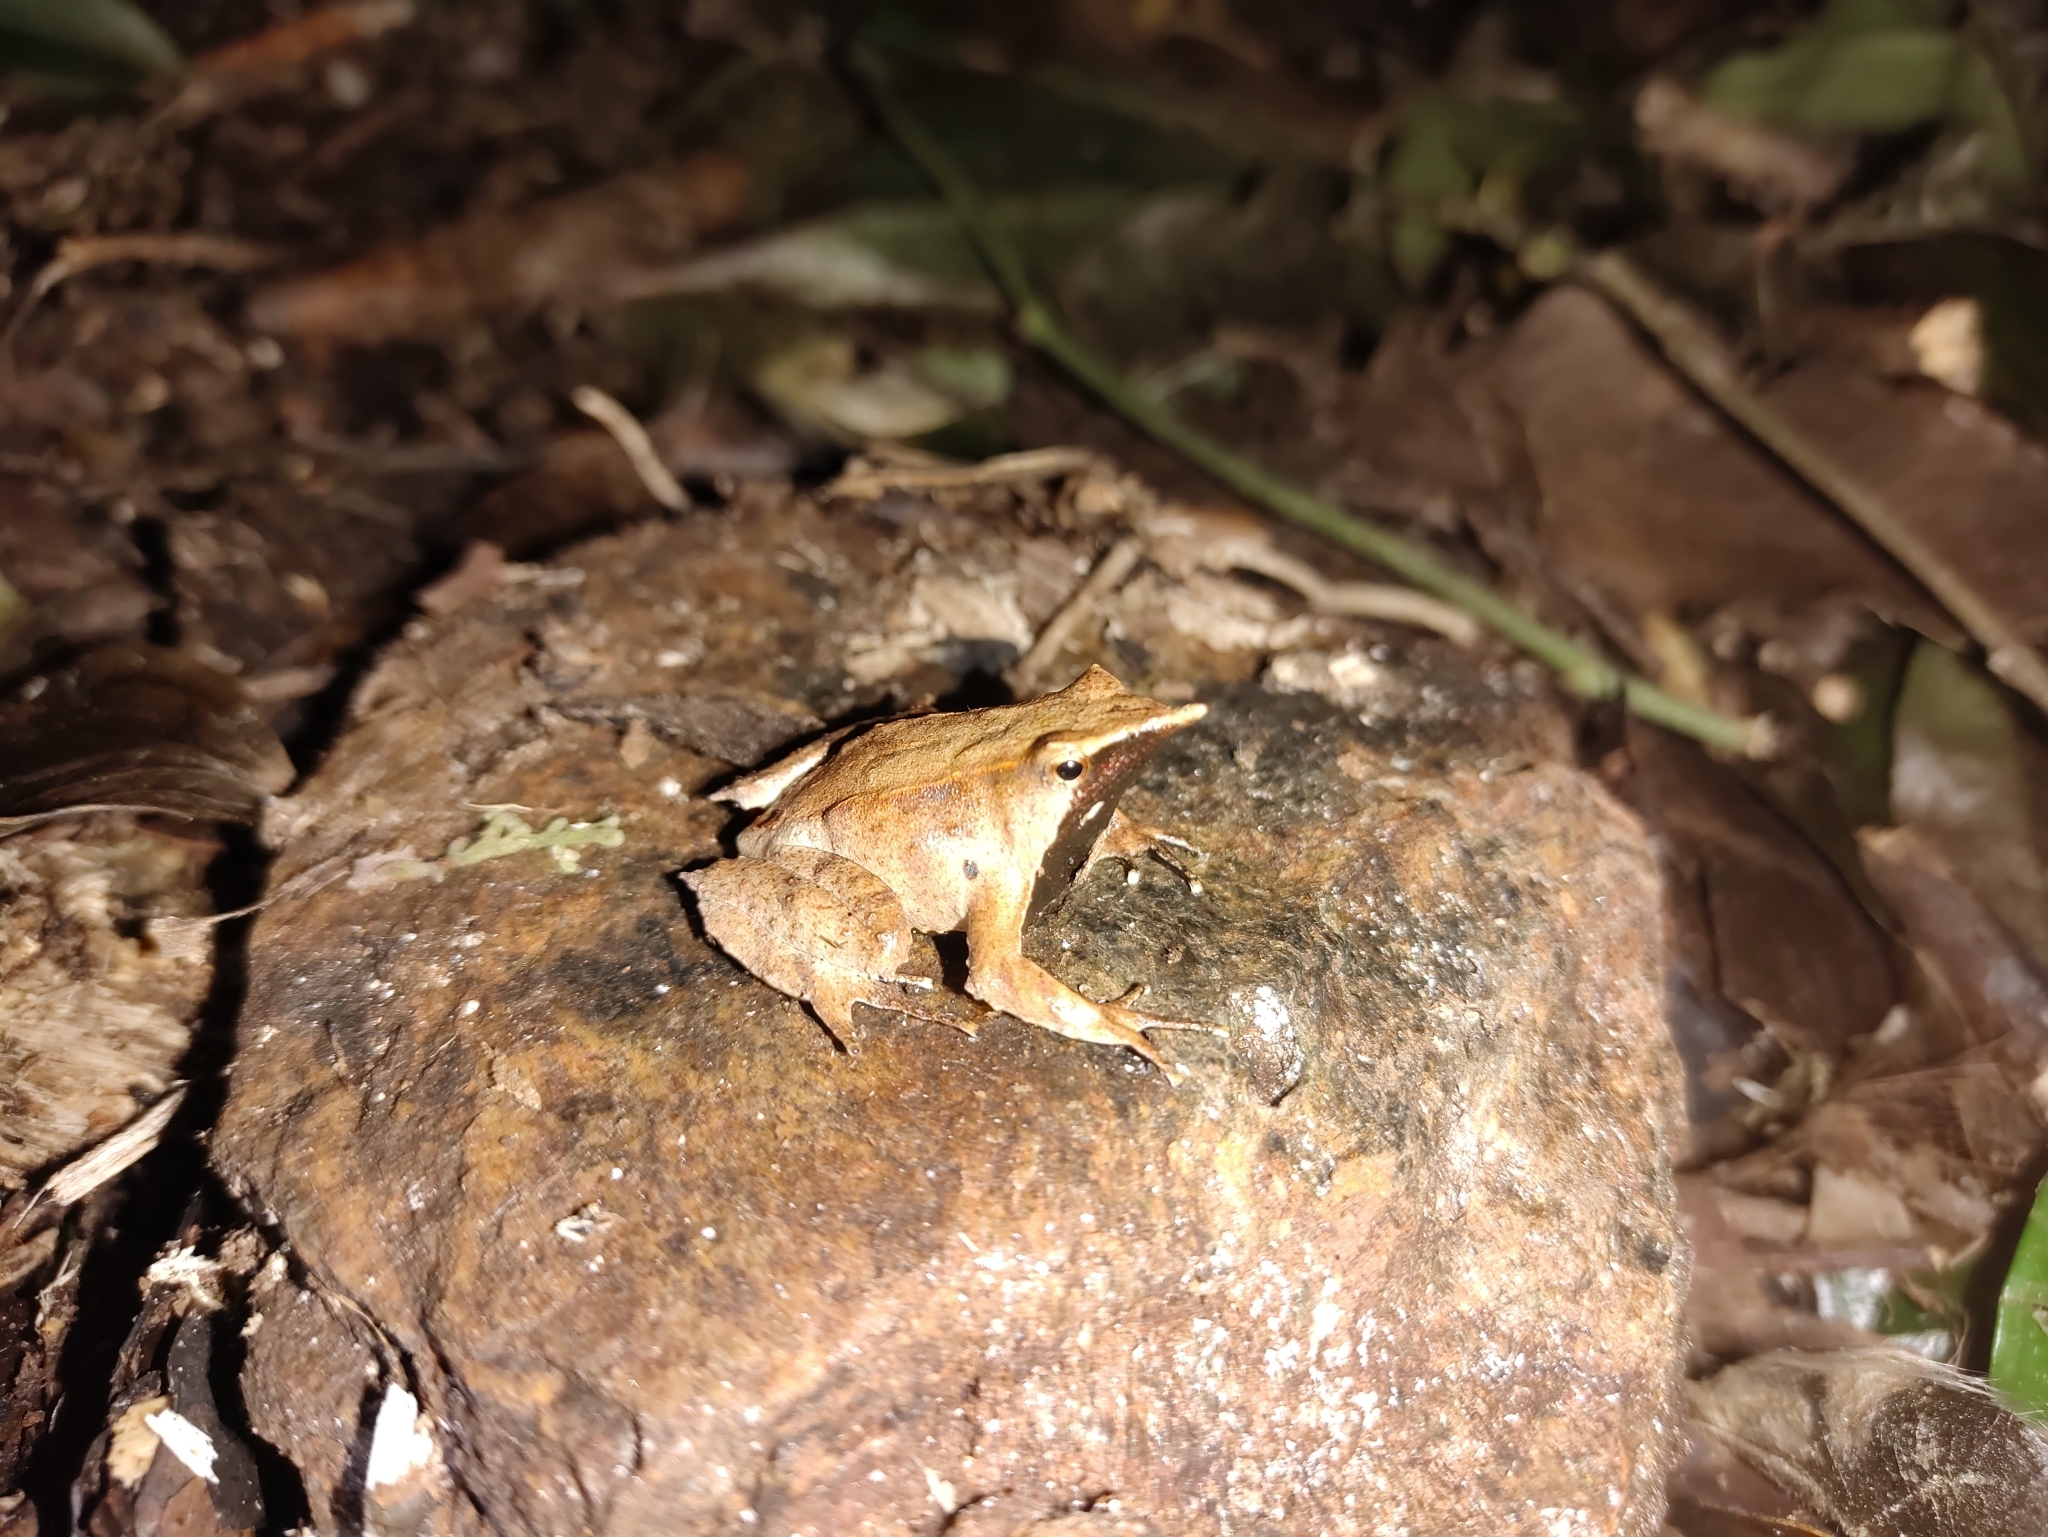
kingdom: Animalia
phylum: Chordata
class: Amphibia
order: Anura
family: Rhinodermatidae
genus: Rhinoderma
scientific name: Rhinoderma darwinii
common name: Darwin's frog
